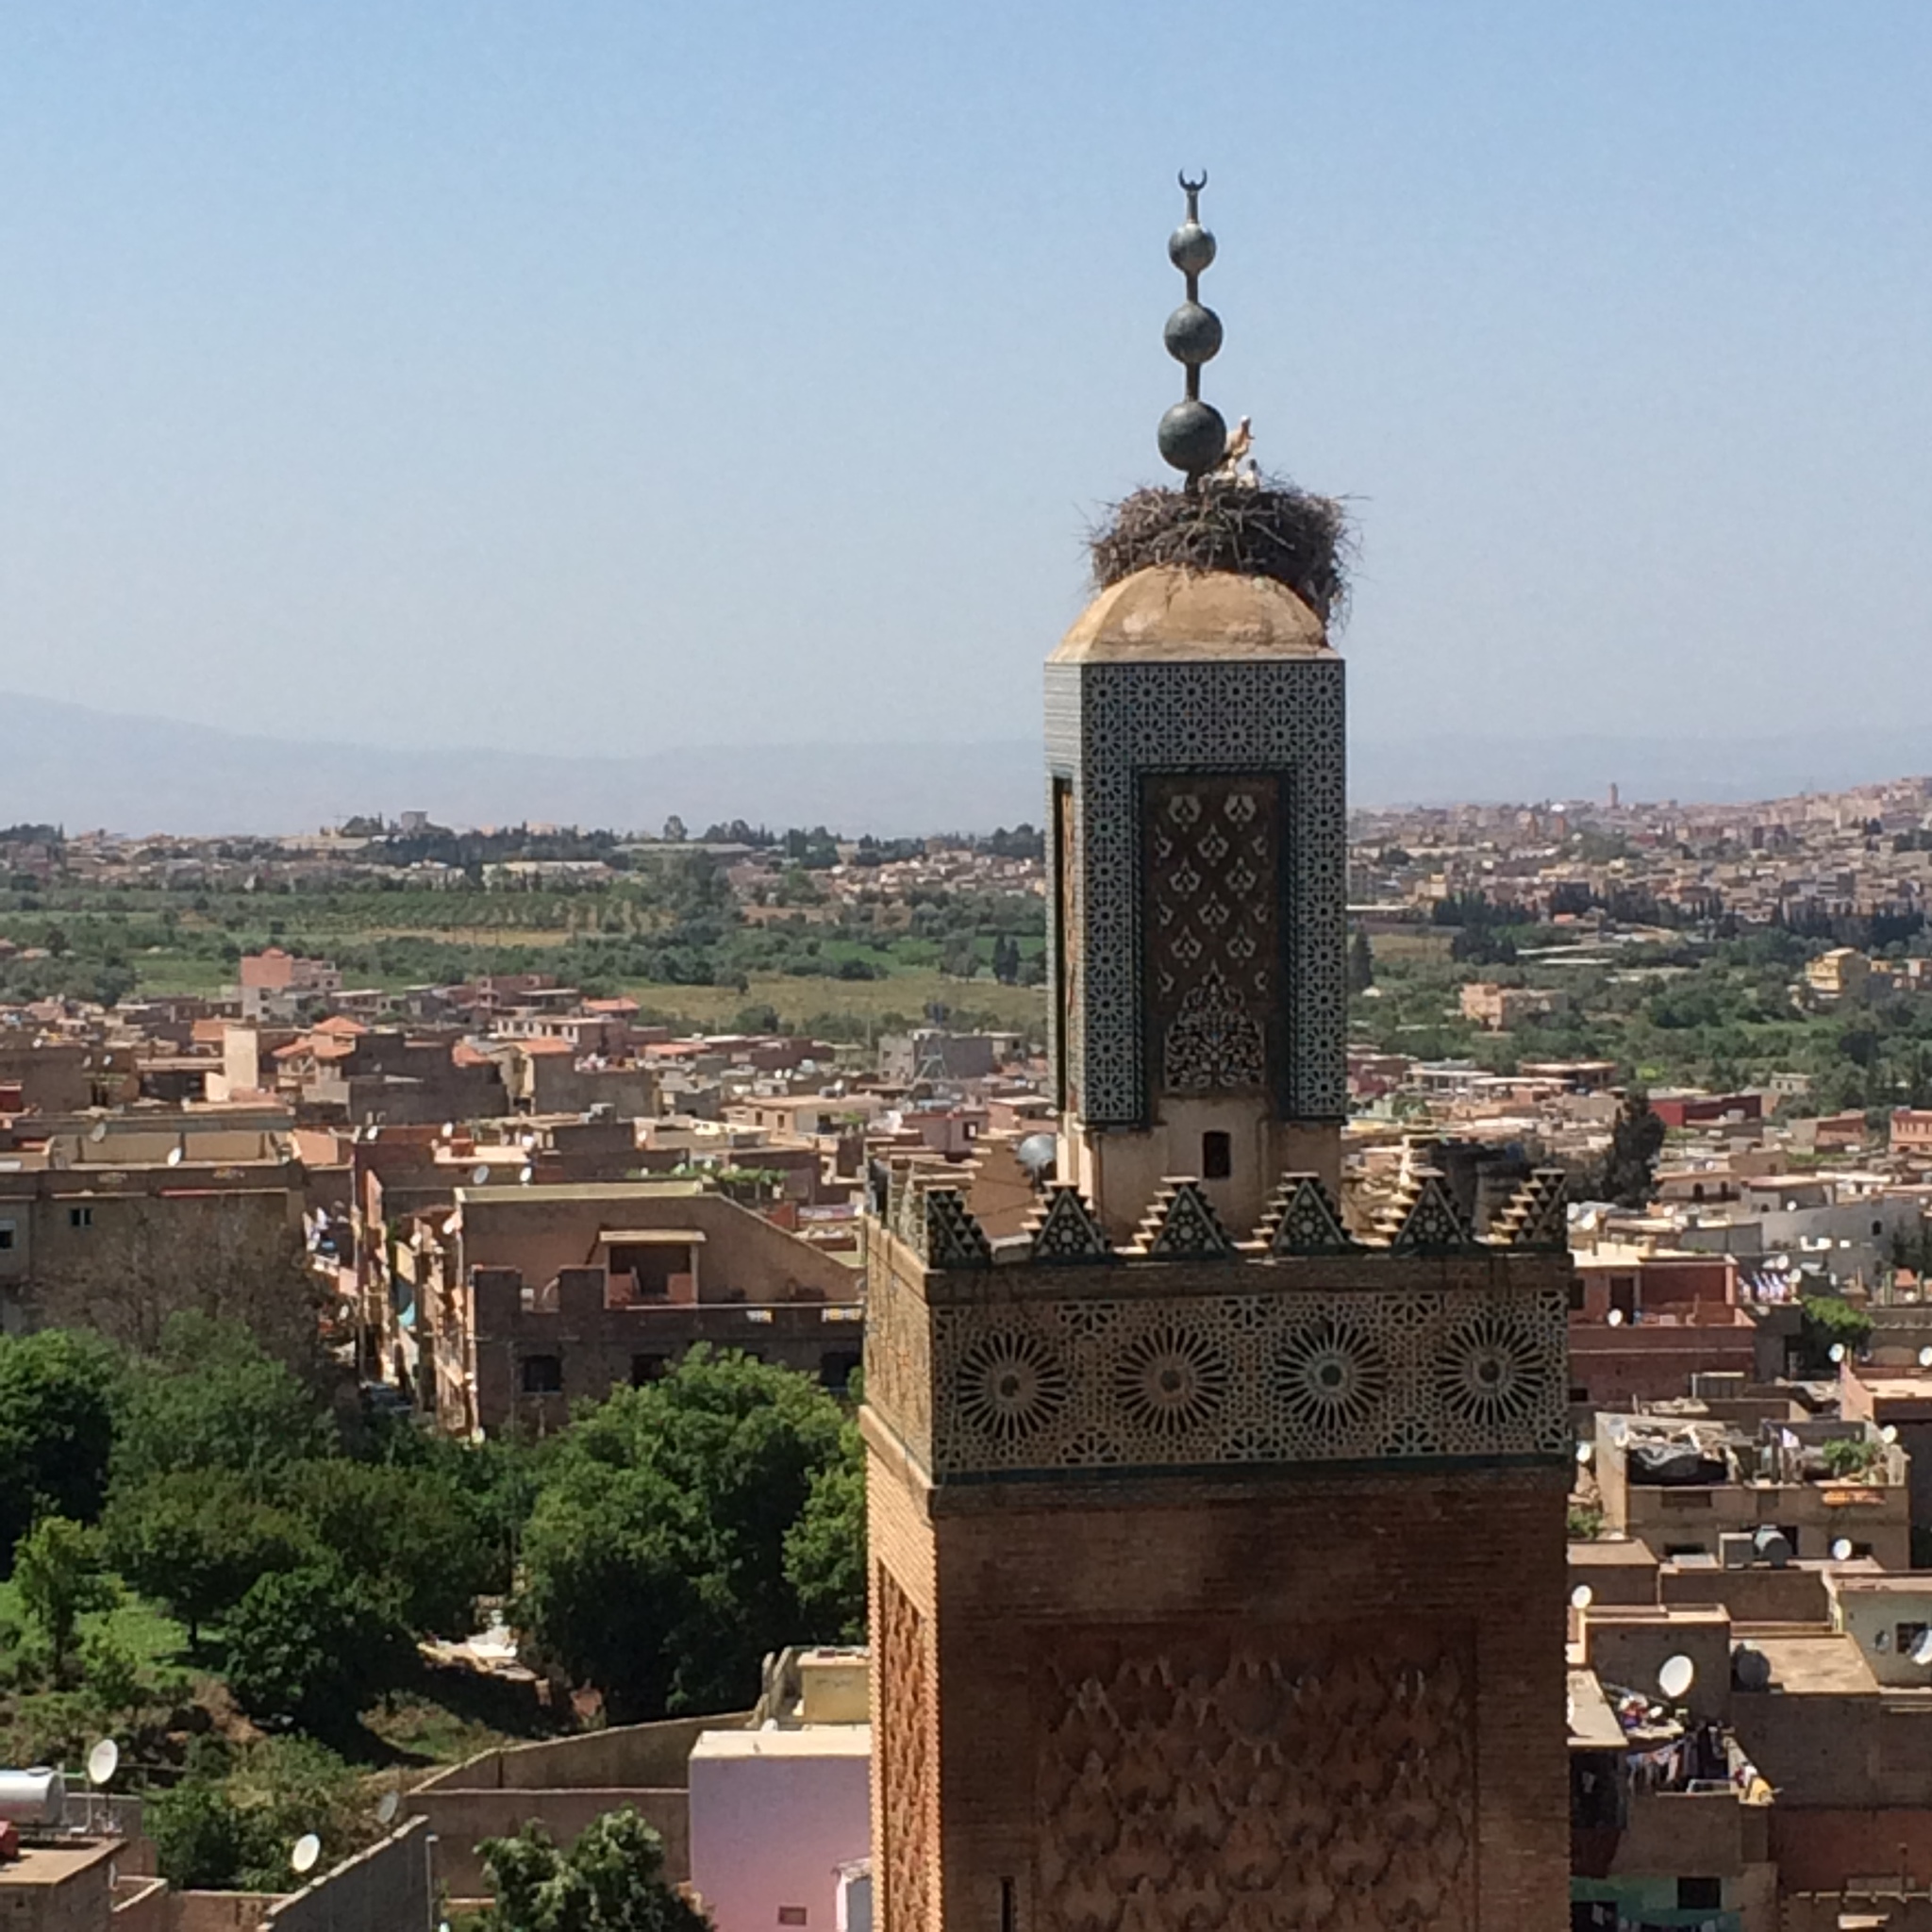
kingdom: Animalia
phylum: Chordata
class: Aves
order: Ciconiiformes
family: Ciconiidae
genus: Ciconia
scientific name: Ciconia ciconia
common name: White stork
